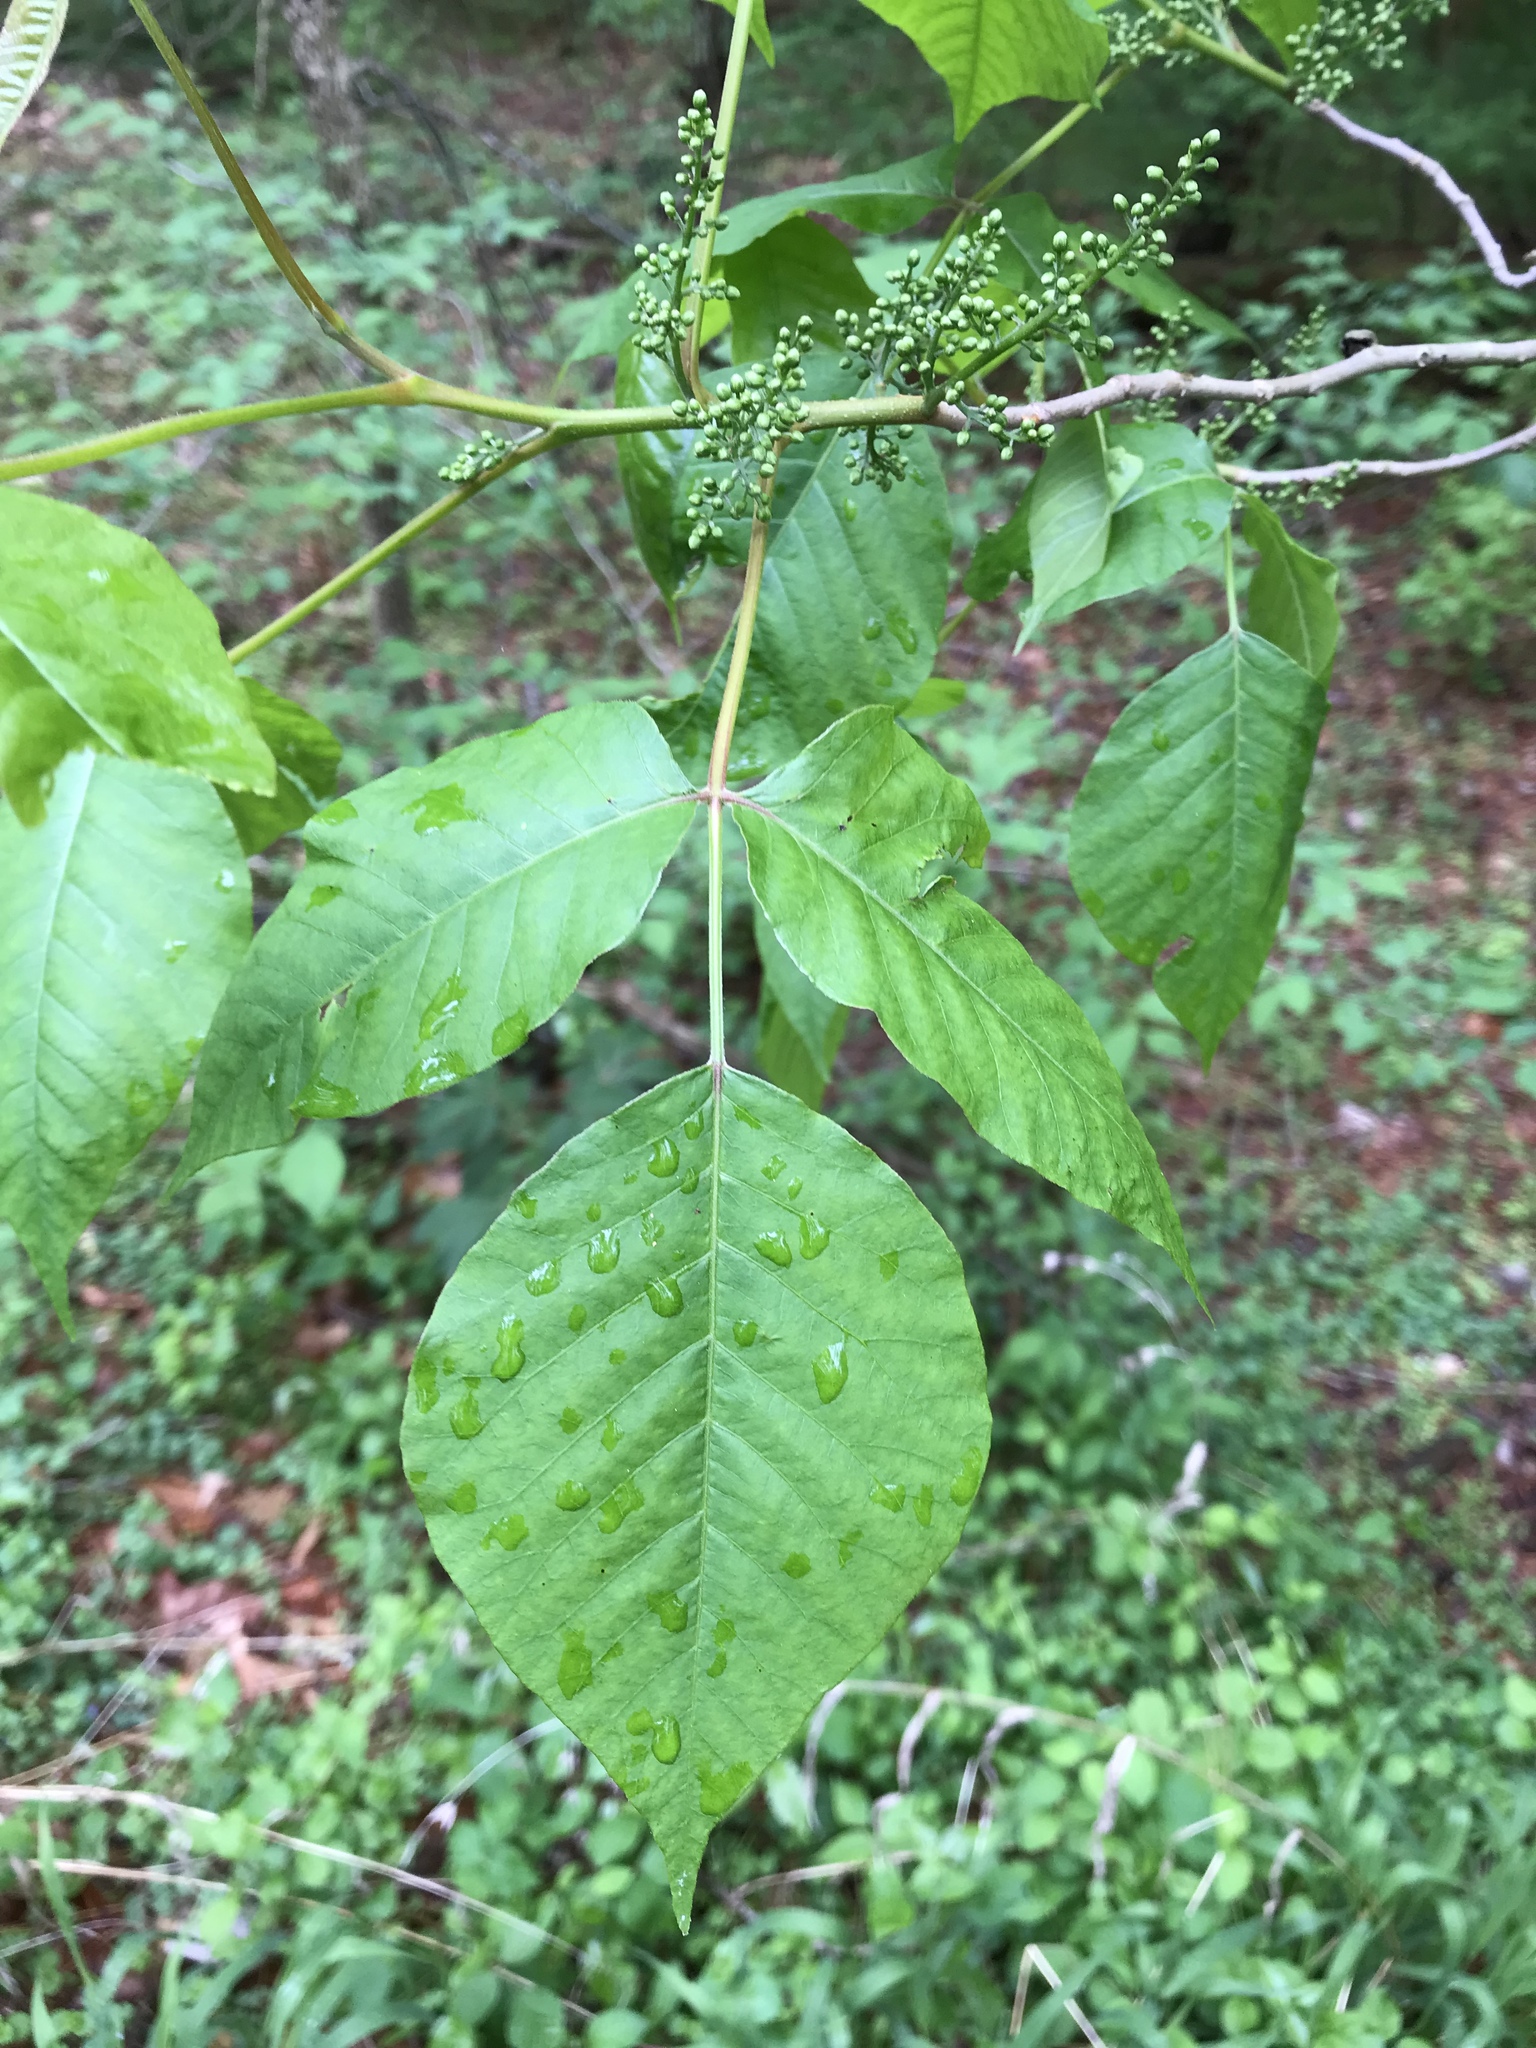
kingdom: Plantae
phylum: Tracheophyta
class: Magnoliopsida
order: Sapindales
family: Anacardiaceae
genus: Toxicodendron
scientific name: Toxicodendron radicans
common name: Poison ivy
